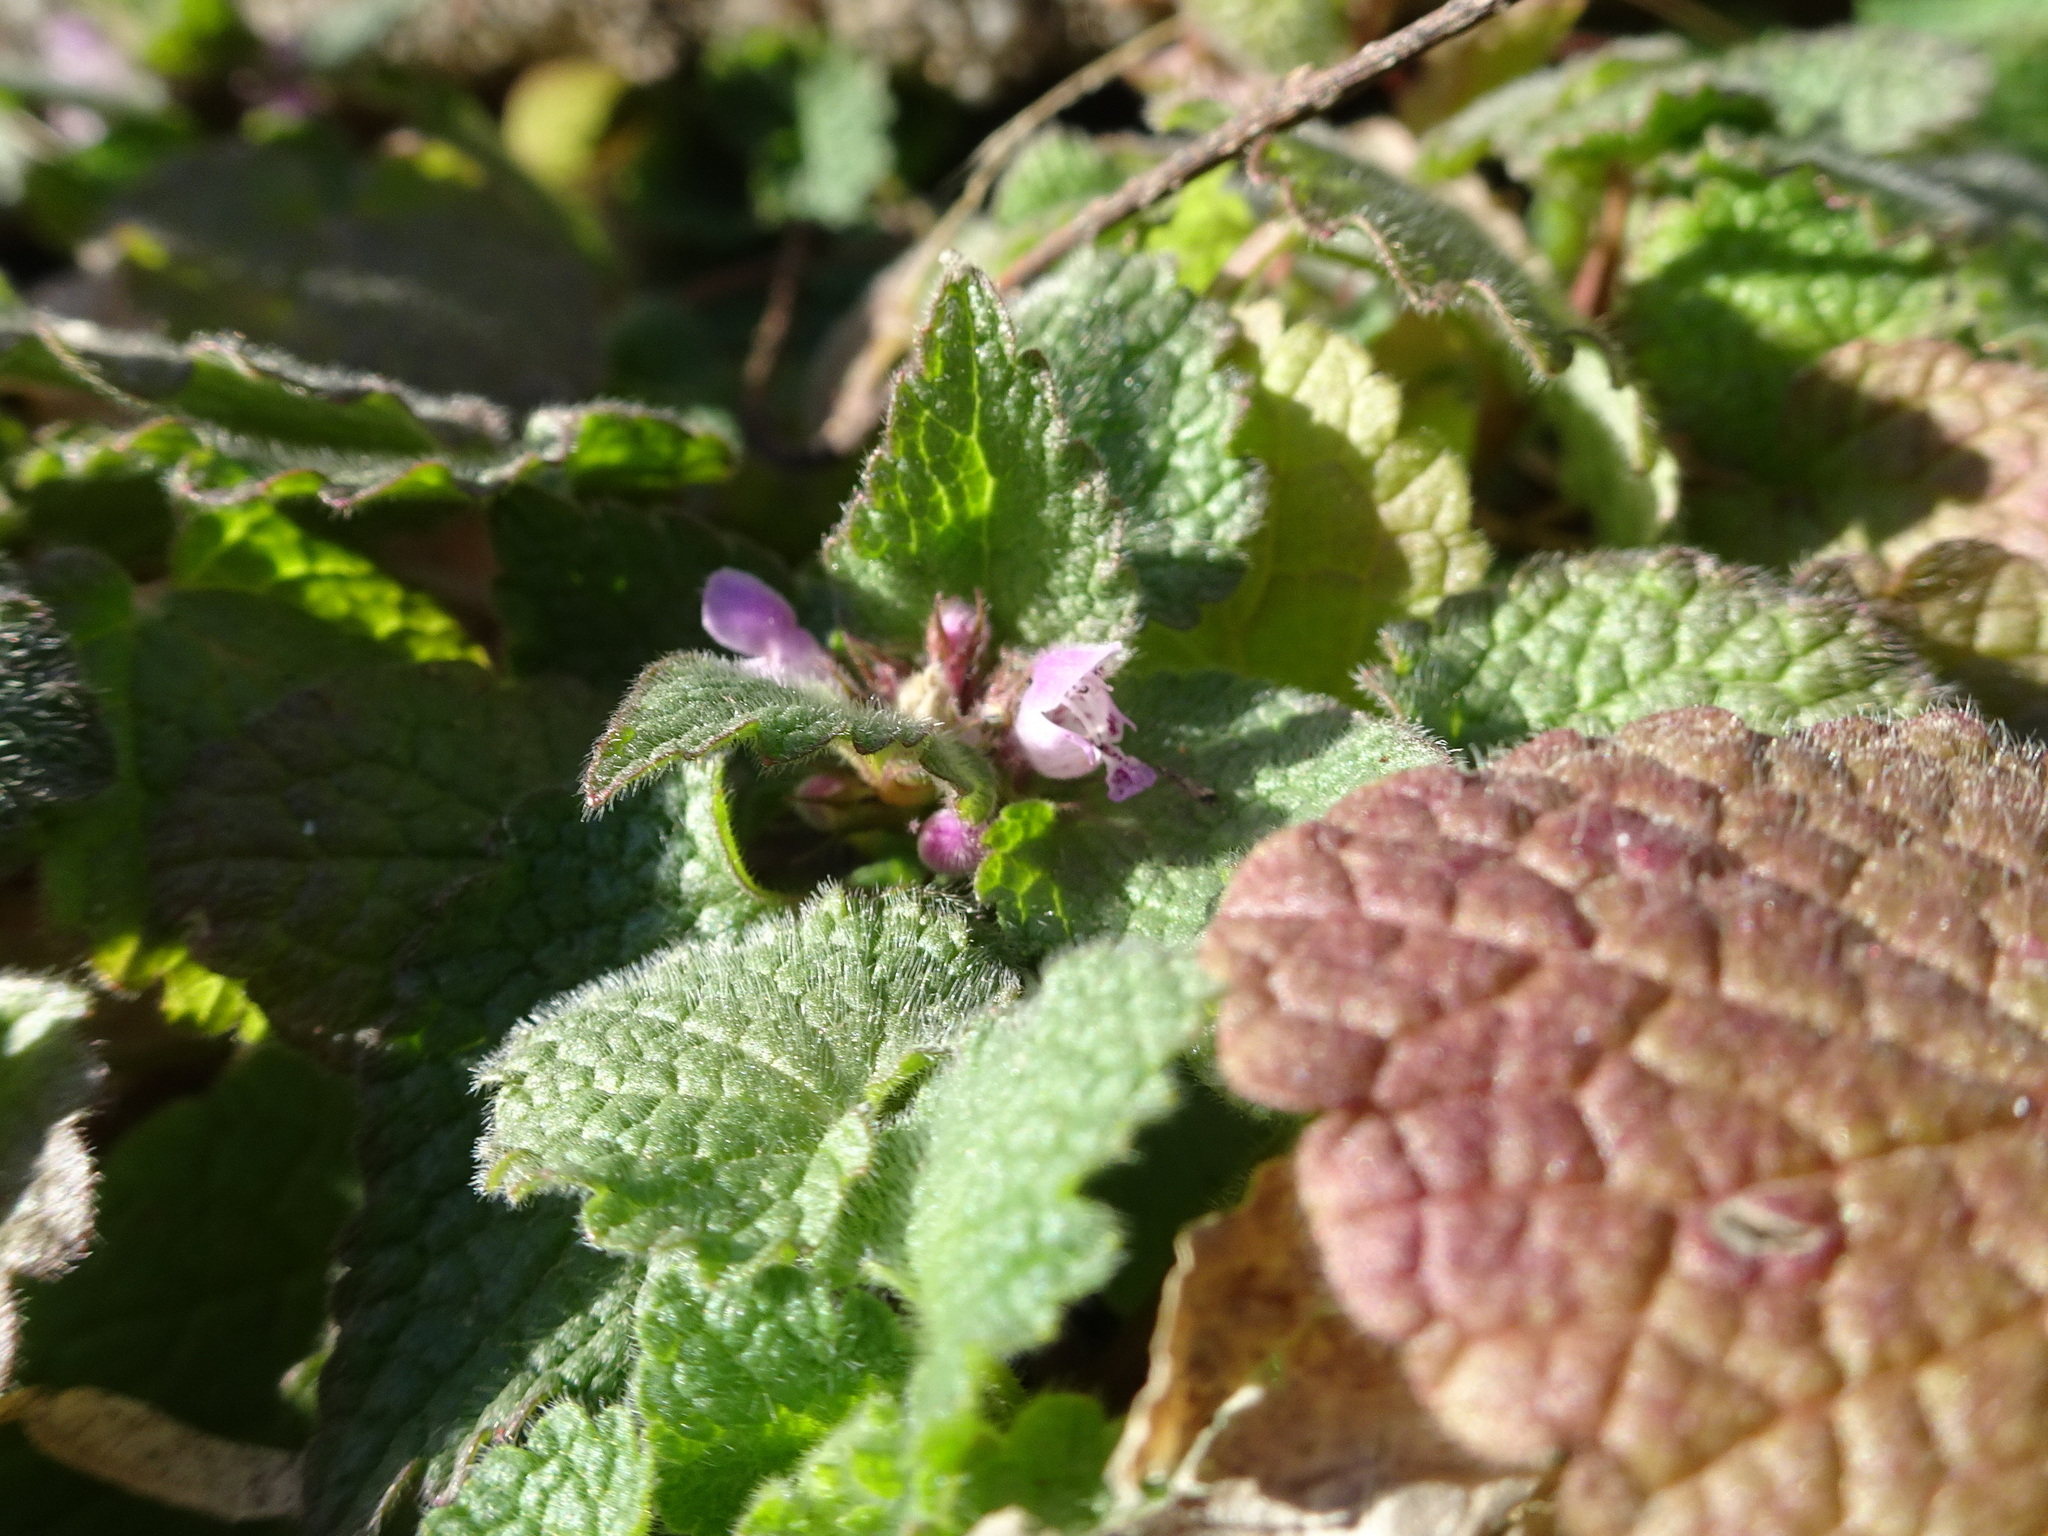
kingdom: Plantae
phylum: Tracheophyta
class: Magnoliopsida
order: Lamiales
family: Lamiaceae
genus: Lamium
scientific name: Lamium purpureum
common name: Red dead-nettle
